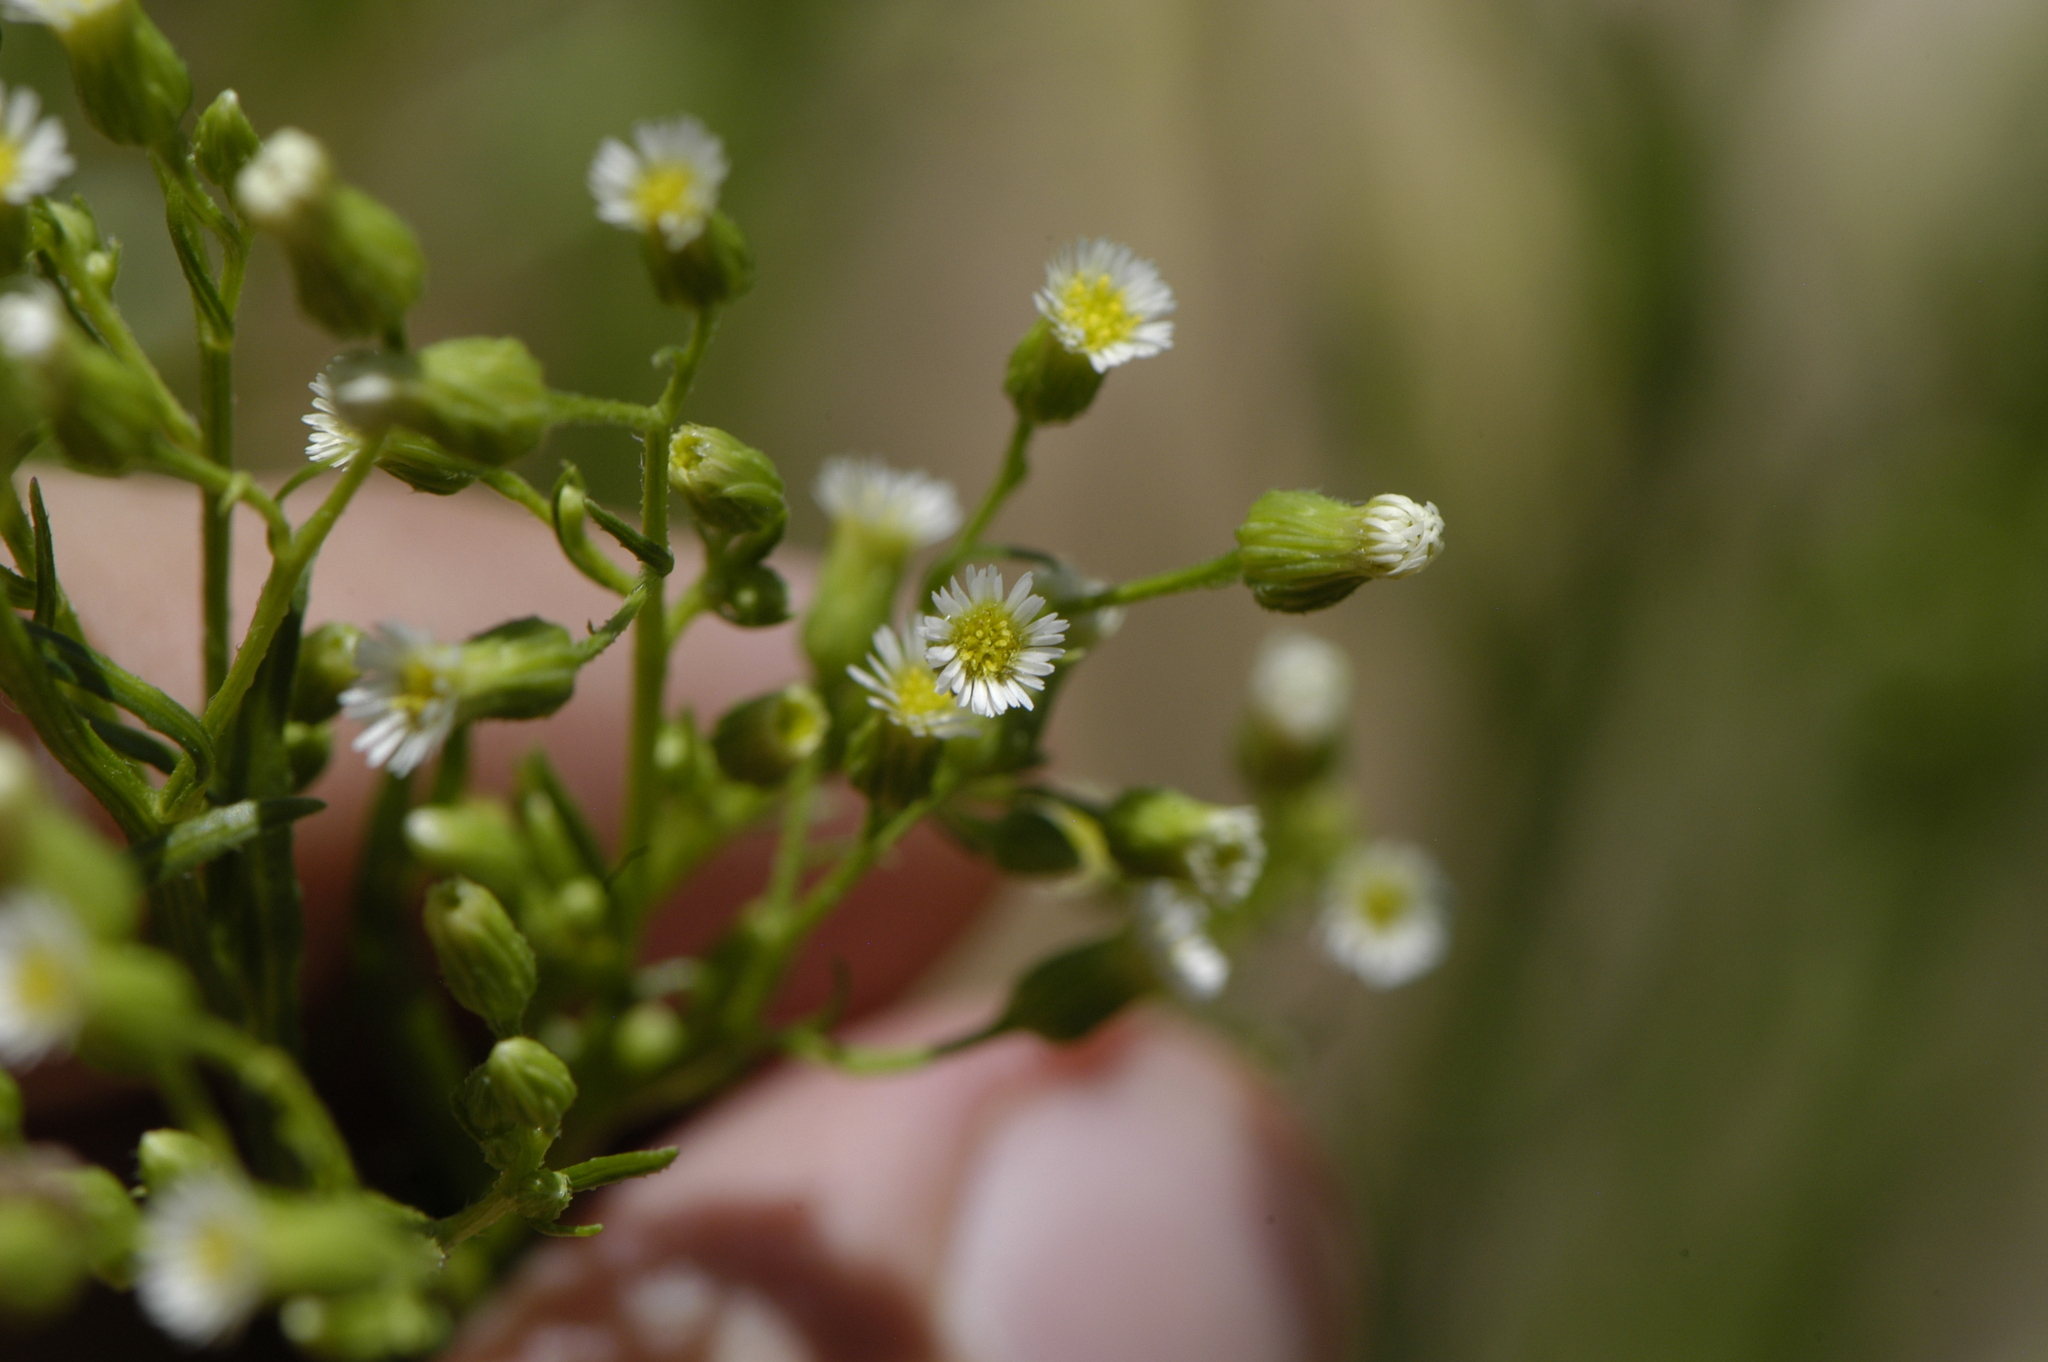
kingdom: Plantae
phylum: Tracheophyta
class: Magnoliopsida
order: Asterales
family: Asteraceae
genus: Erigeron
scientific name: Erigeron canadensis
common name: Canadian fleabane
